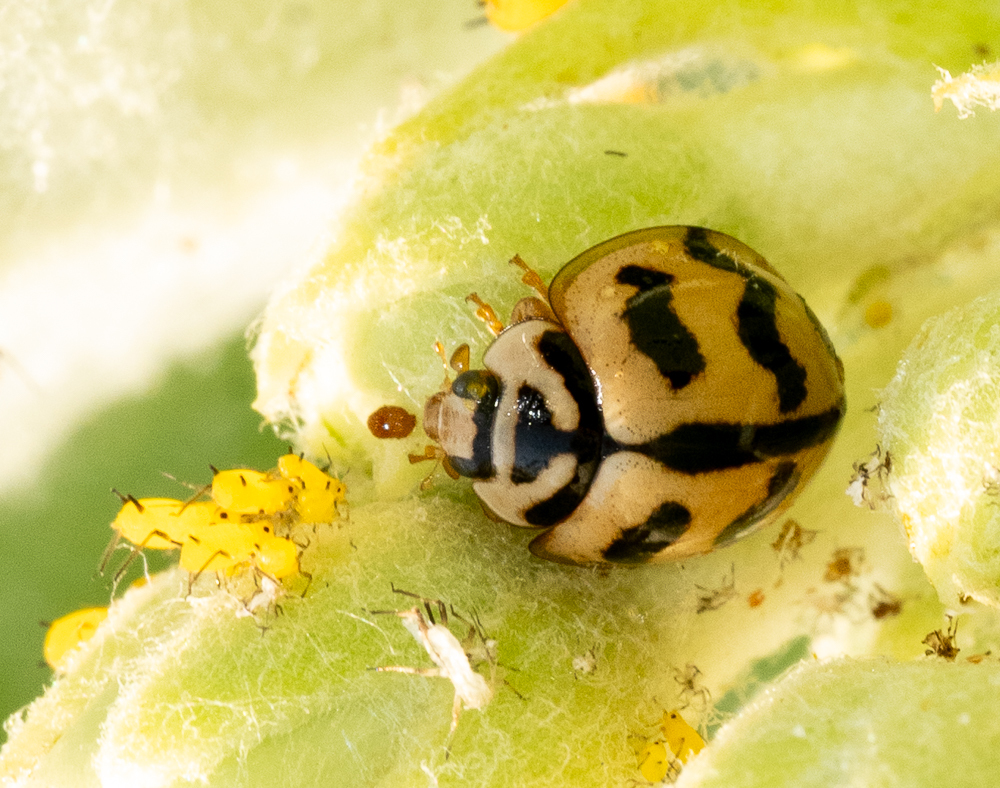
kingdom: Animalia
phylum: Arthropoda
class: Insecta
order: Coleoptera
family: Coccinellidae
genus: Cheilomenes
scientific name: Cheilomenes sexmaculata
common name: Ladybird beetle
